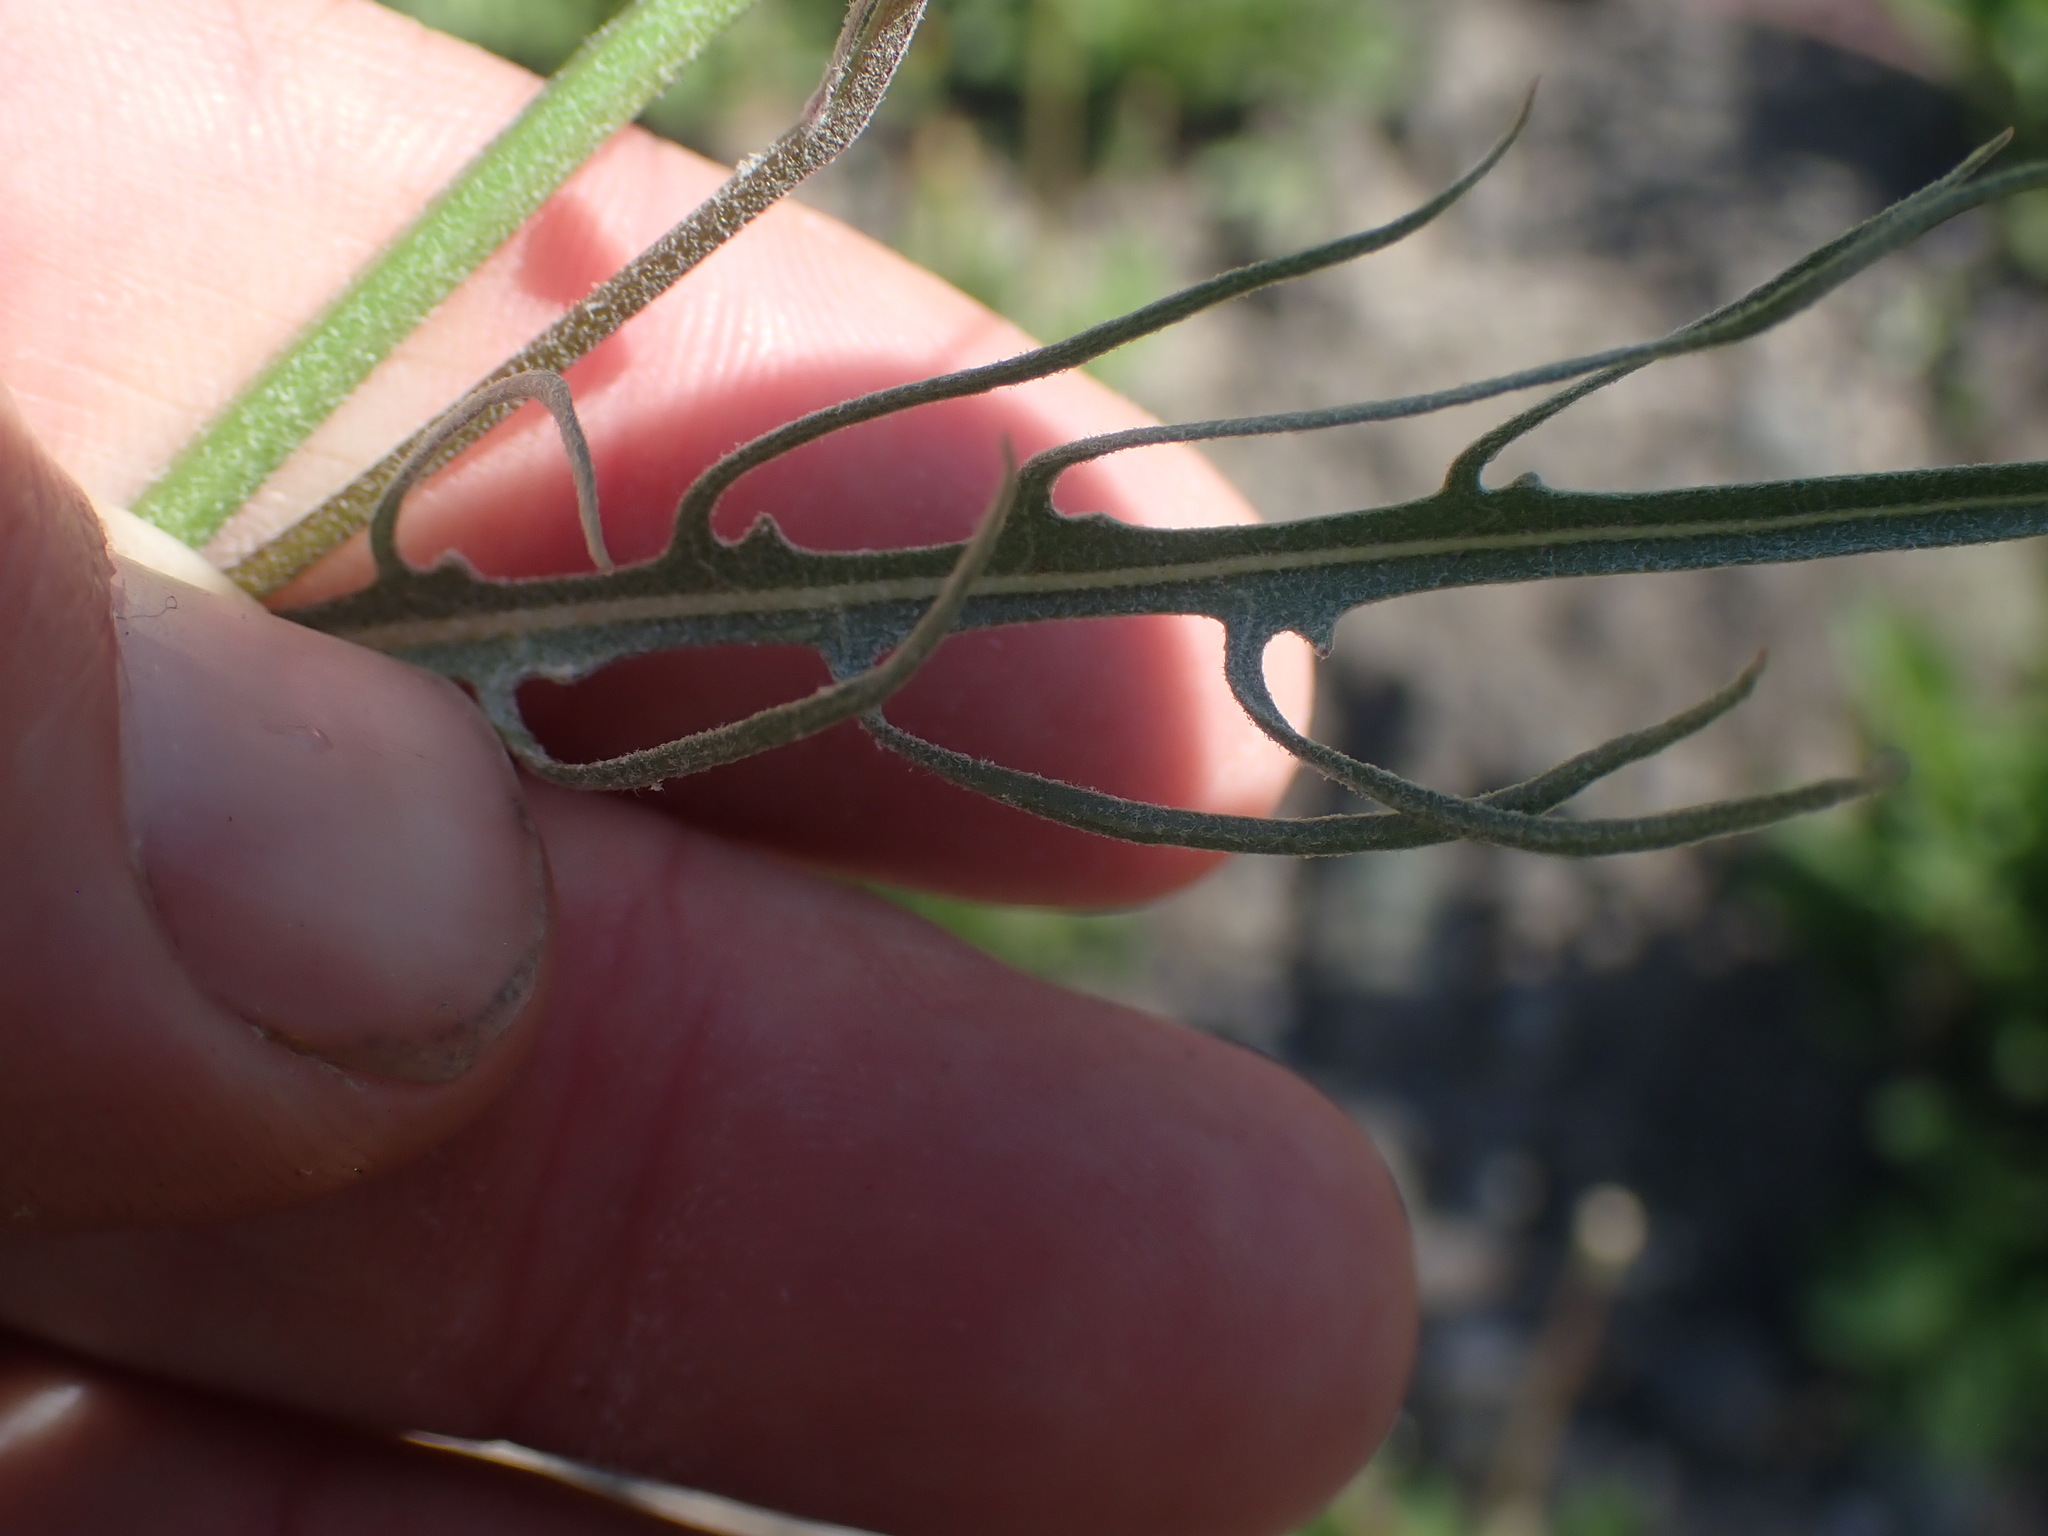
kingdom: Plantae
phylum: Tracheophyta
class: Magnoliopsida
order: Asterales
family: Asteraceae
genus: Crepis
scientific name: Crepis atribarba
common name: Dark hawk's-beard
